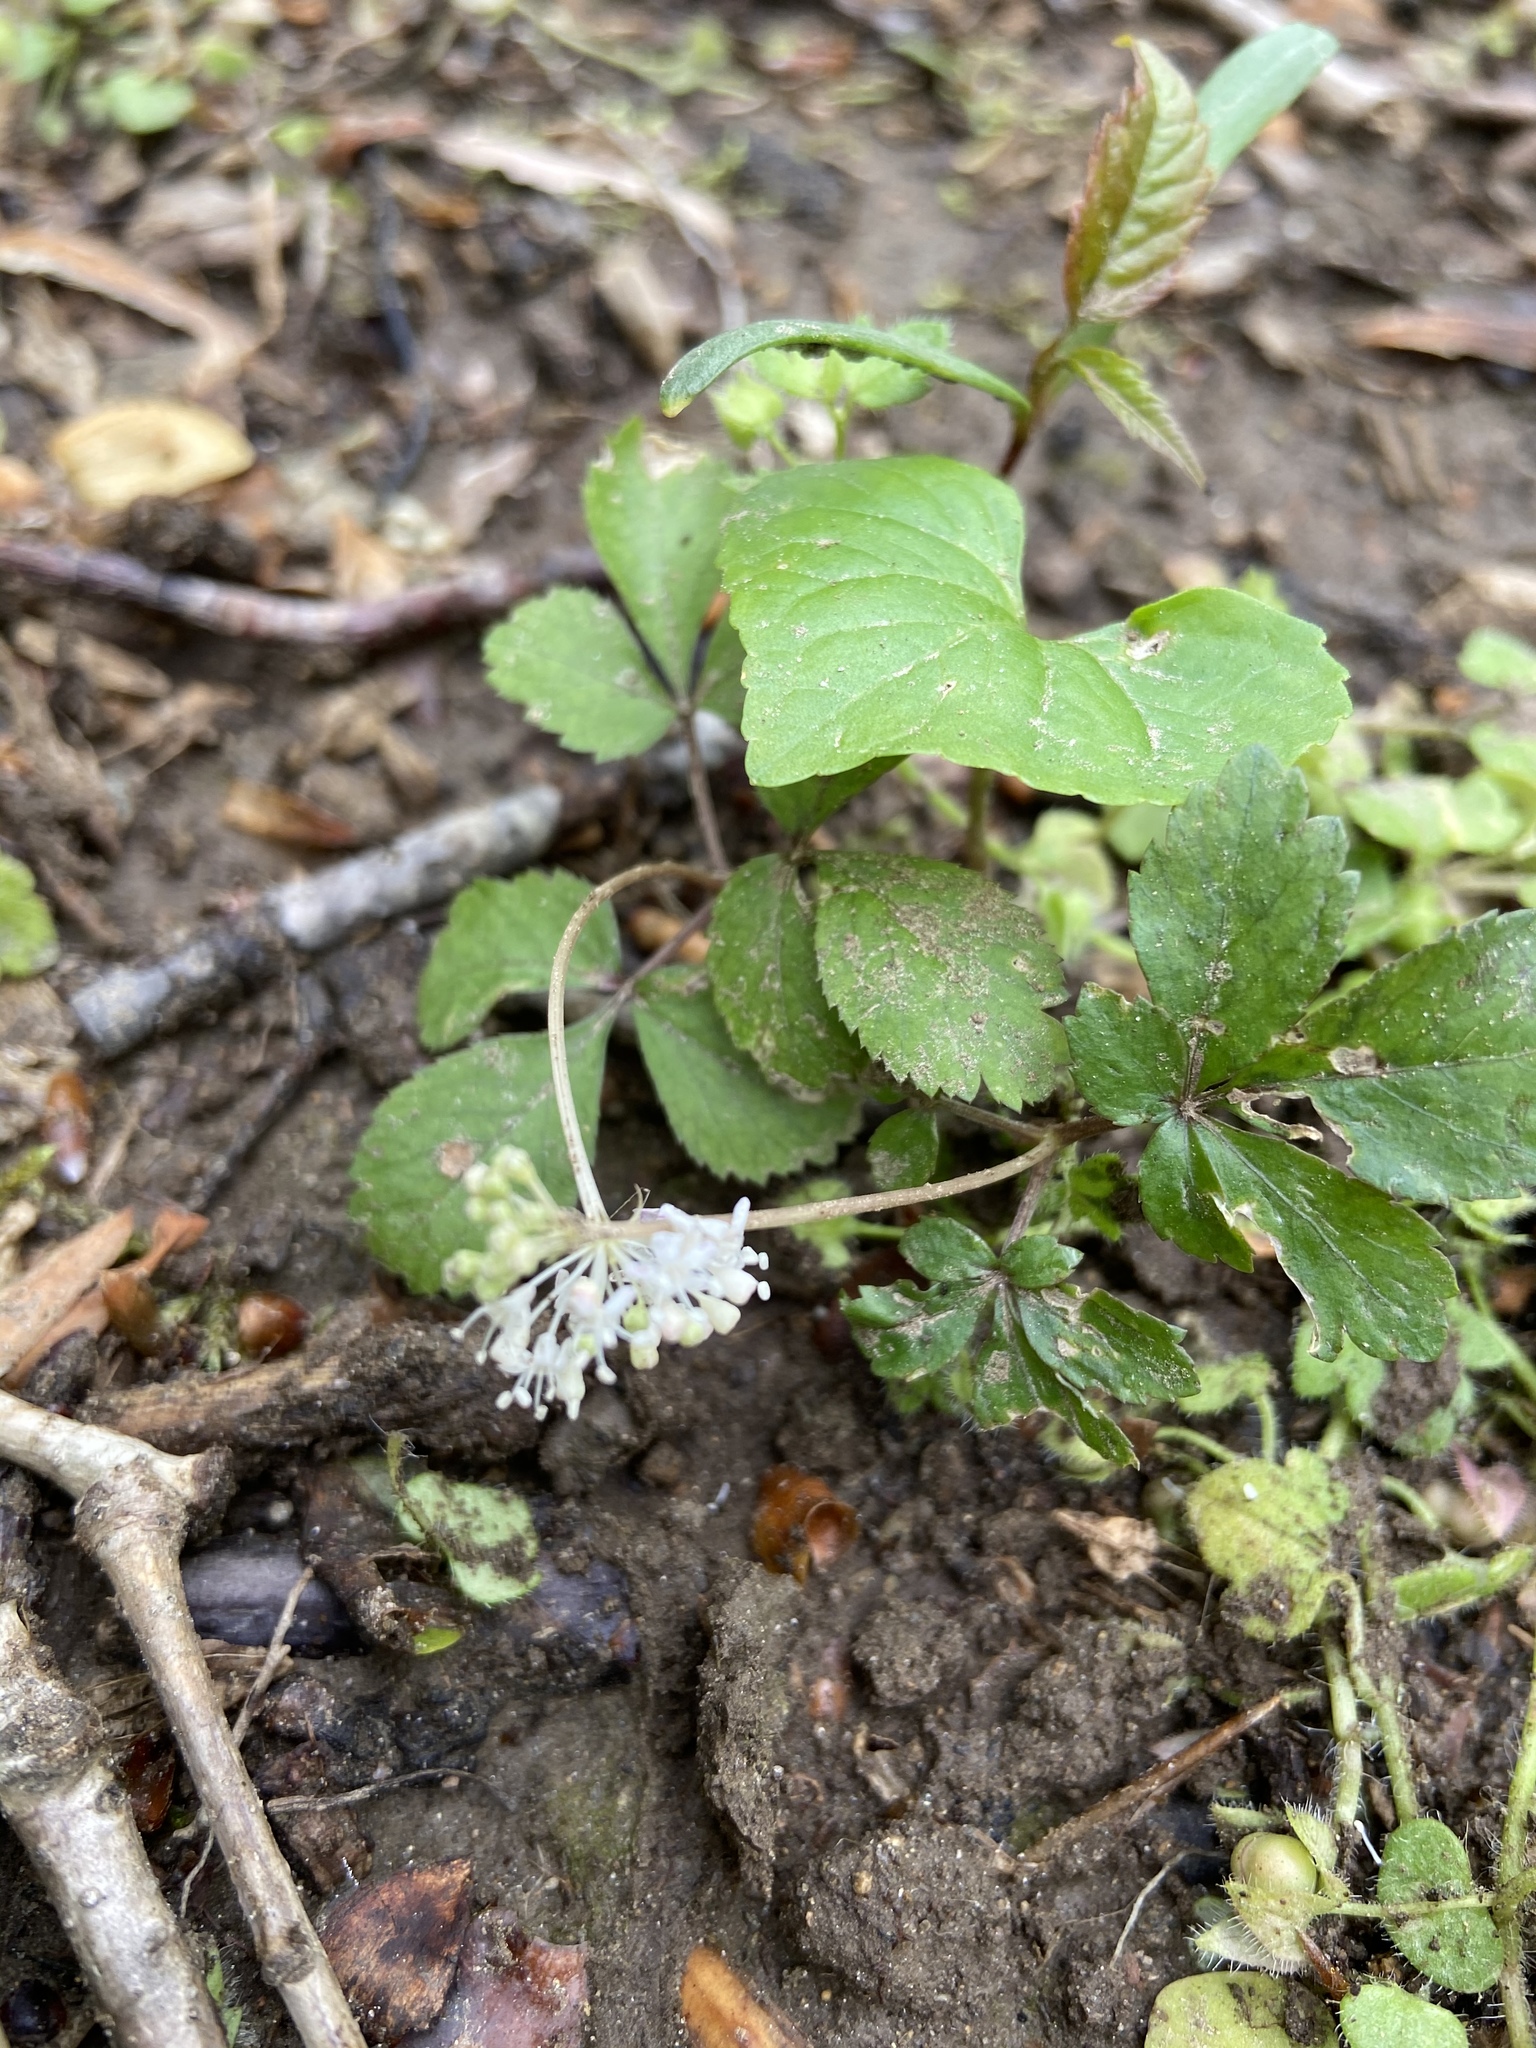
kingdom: Plantae
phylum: Tracheophyta
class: Magnoliopsida
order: Apiales
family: Araliaceae
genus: Panax
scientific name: Panax trifolius
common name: Dwarf ginseng
